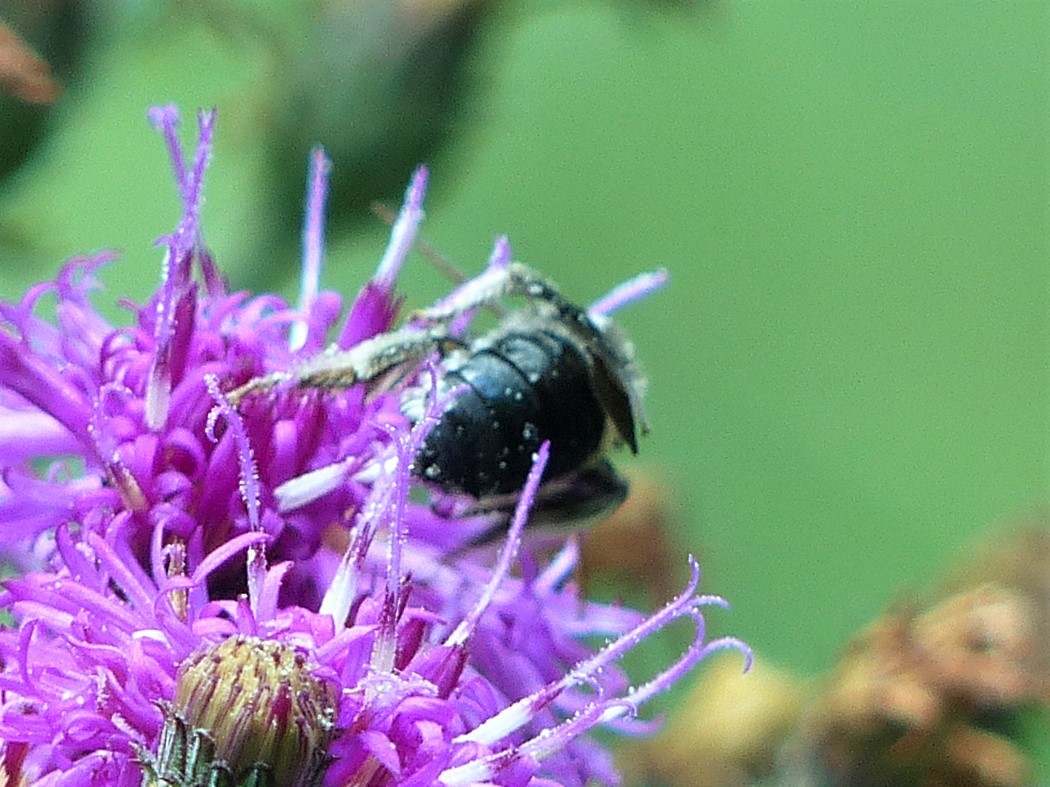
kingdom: Animalia
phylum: Arthropoda
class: Insecta
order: Hymenoptera
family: Apidae
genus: Melissodes
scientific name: Melissodes bimaculatus
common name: Two-spotted long-horned bee
